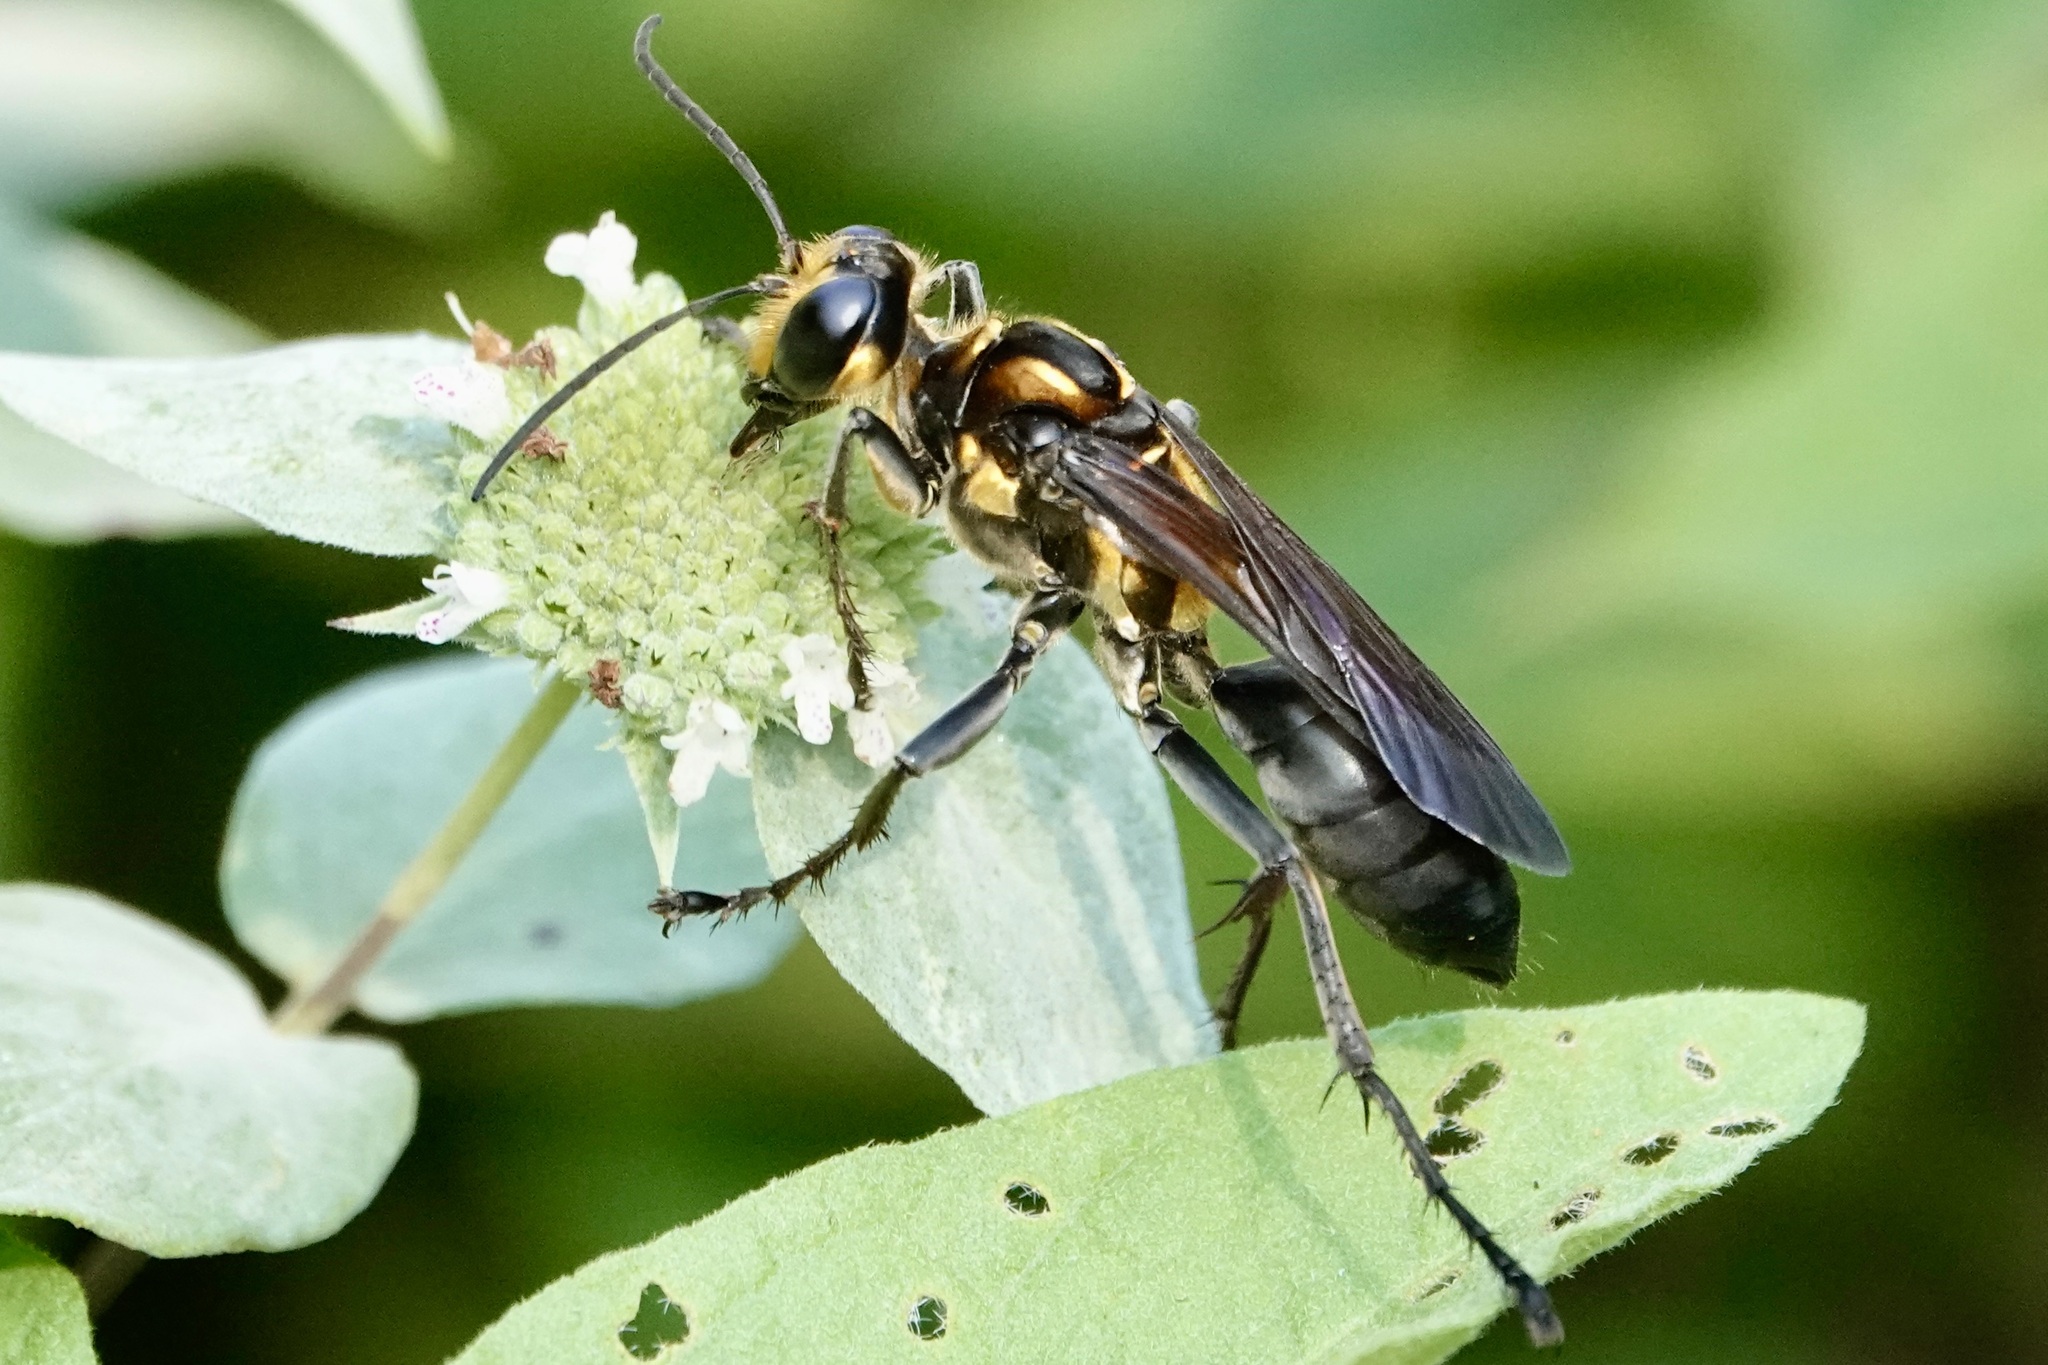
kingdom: Animalia
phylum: Arthropoda
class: Insecta
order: Hymenoptera
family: Sphecidae
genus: Sphex
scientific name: Sphex habenus
